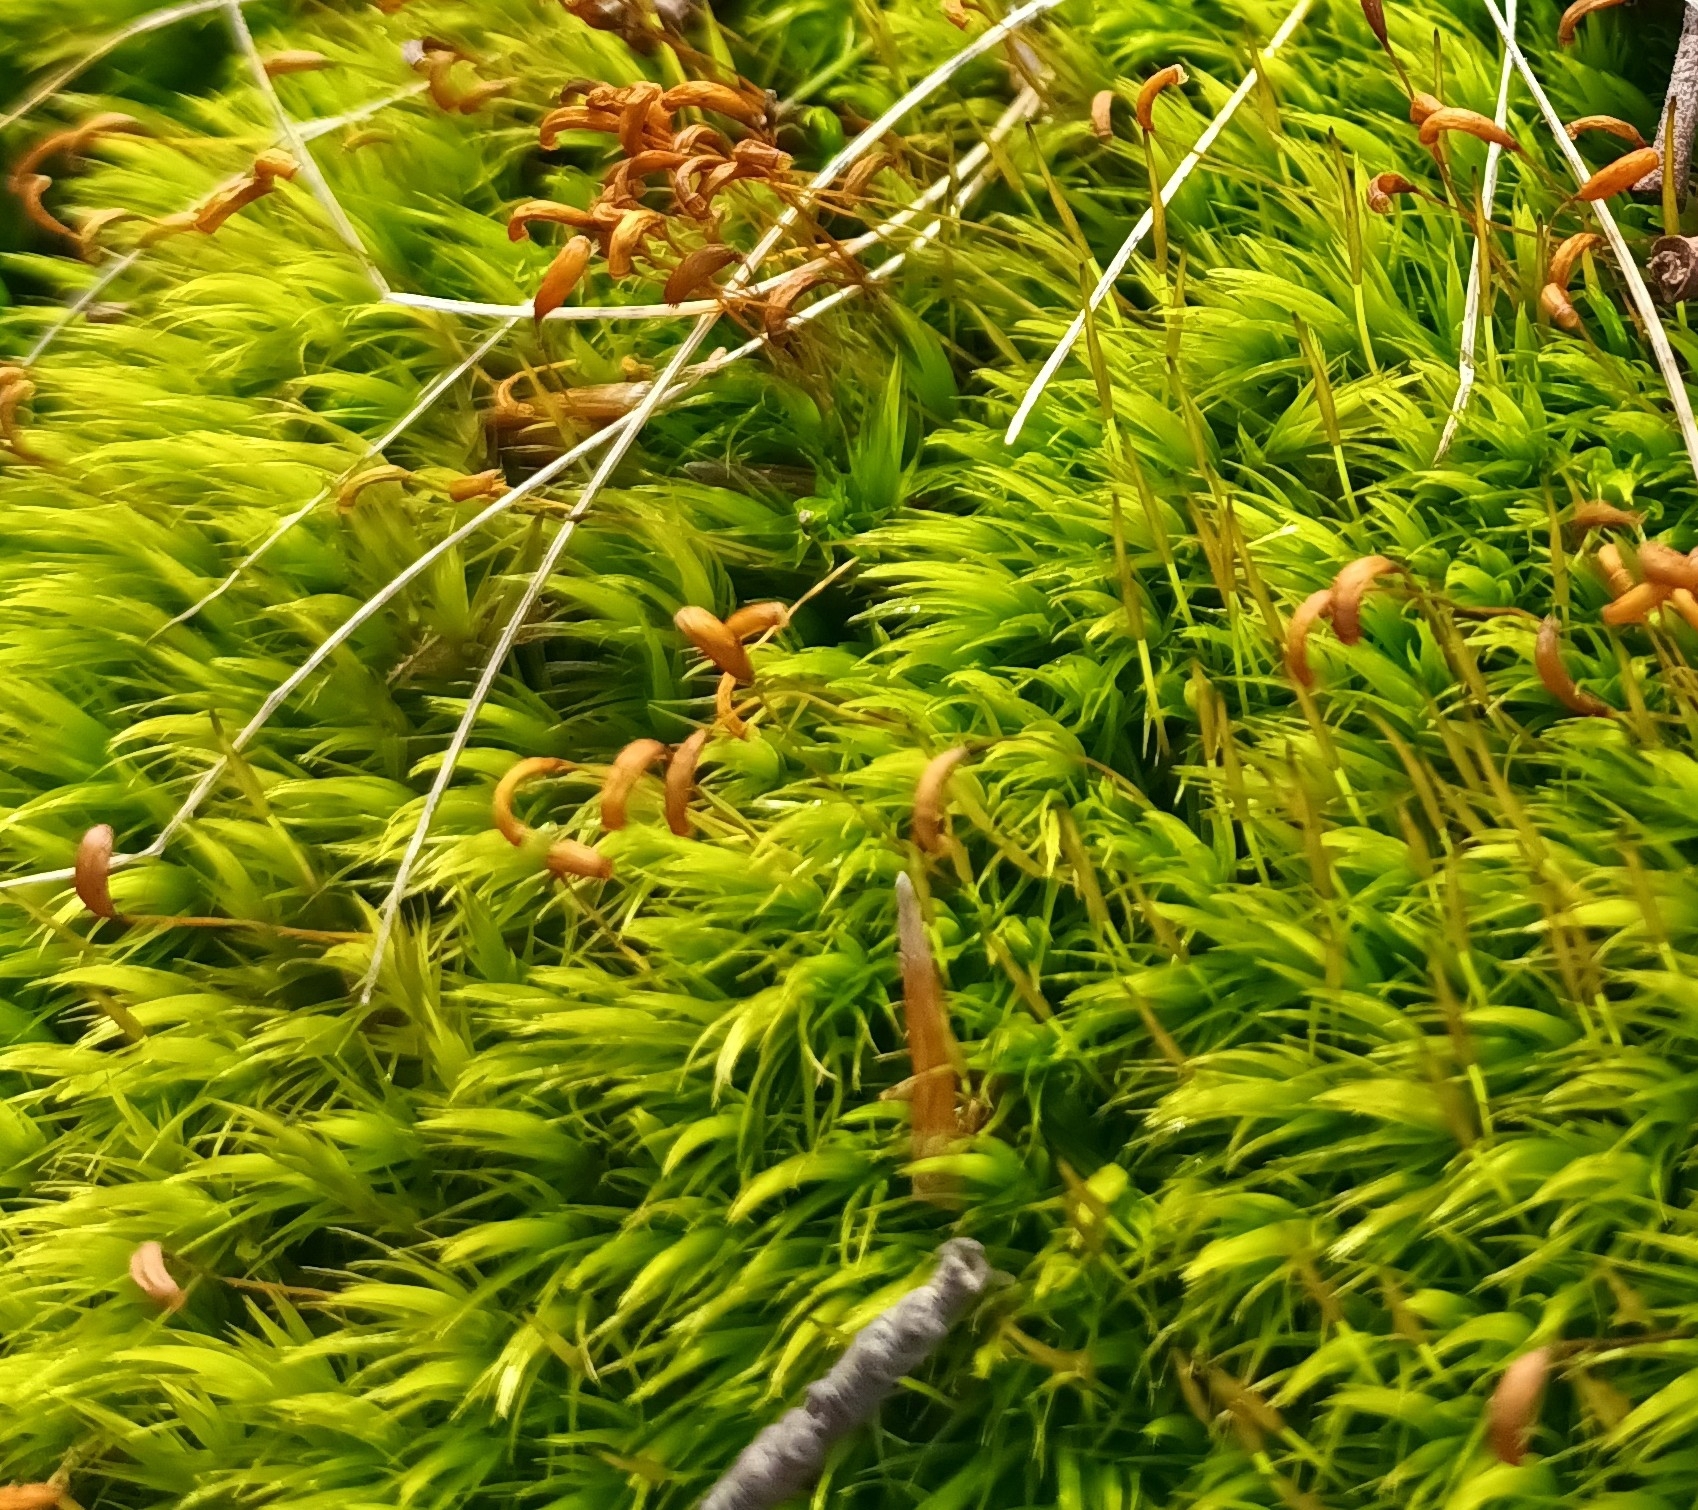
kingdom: Plantae
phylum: Bryophyta
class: Bryopsida
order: Dicranales
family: Dicranaceae
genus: Dicranum
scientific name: Dicranum scoparium
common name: Broom fork-moss
